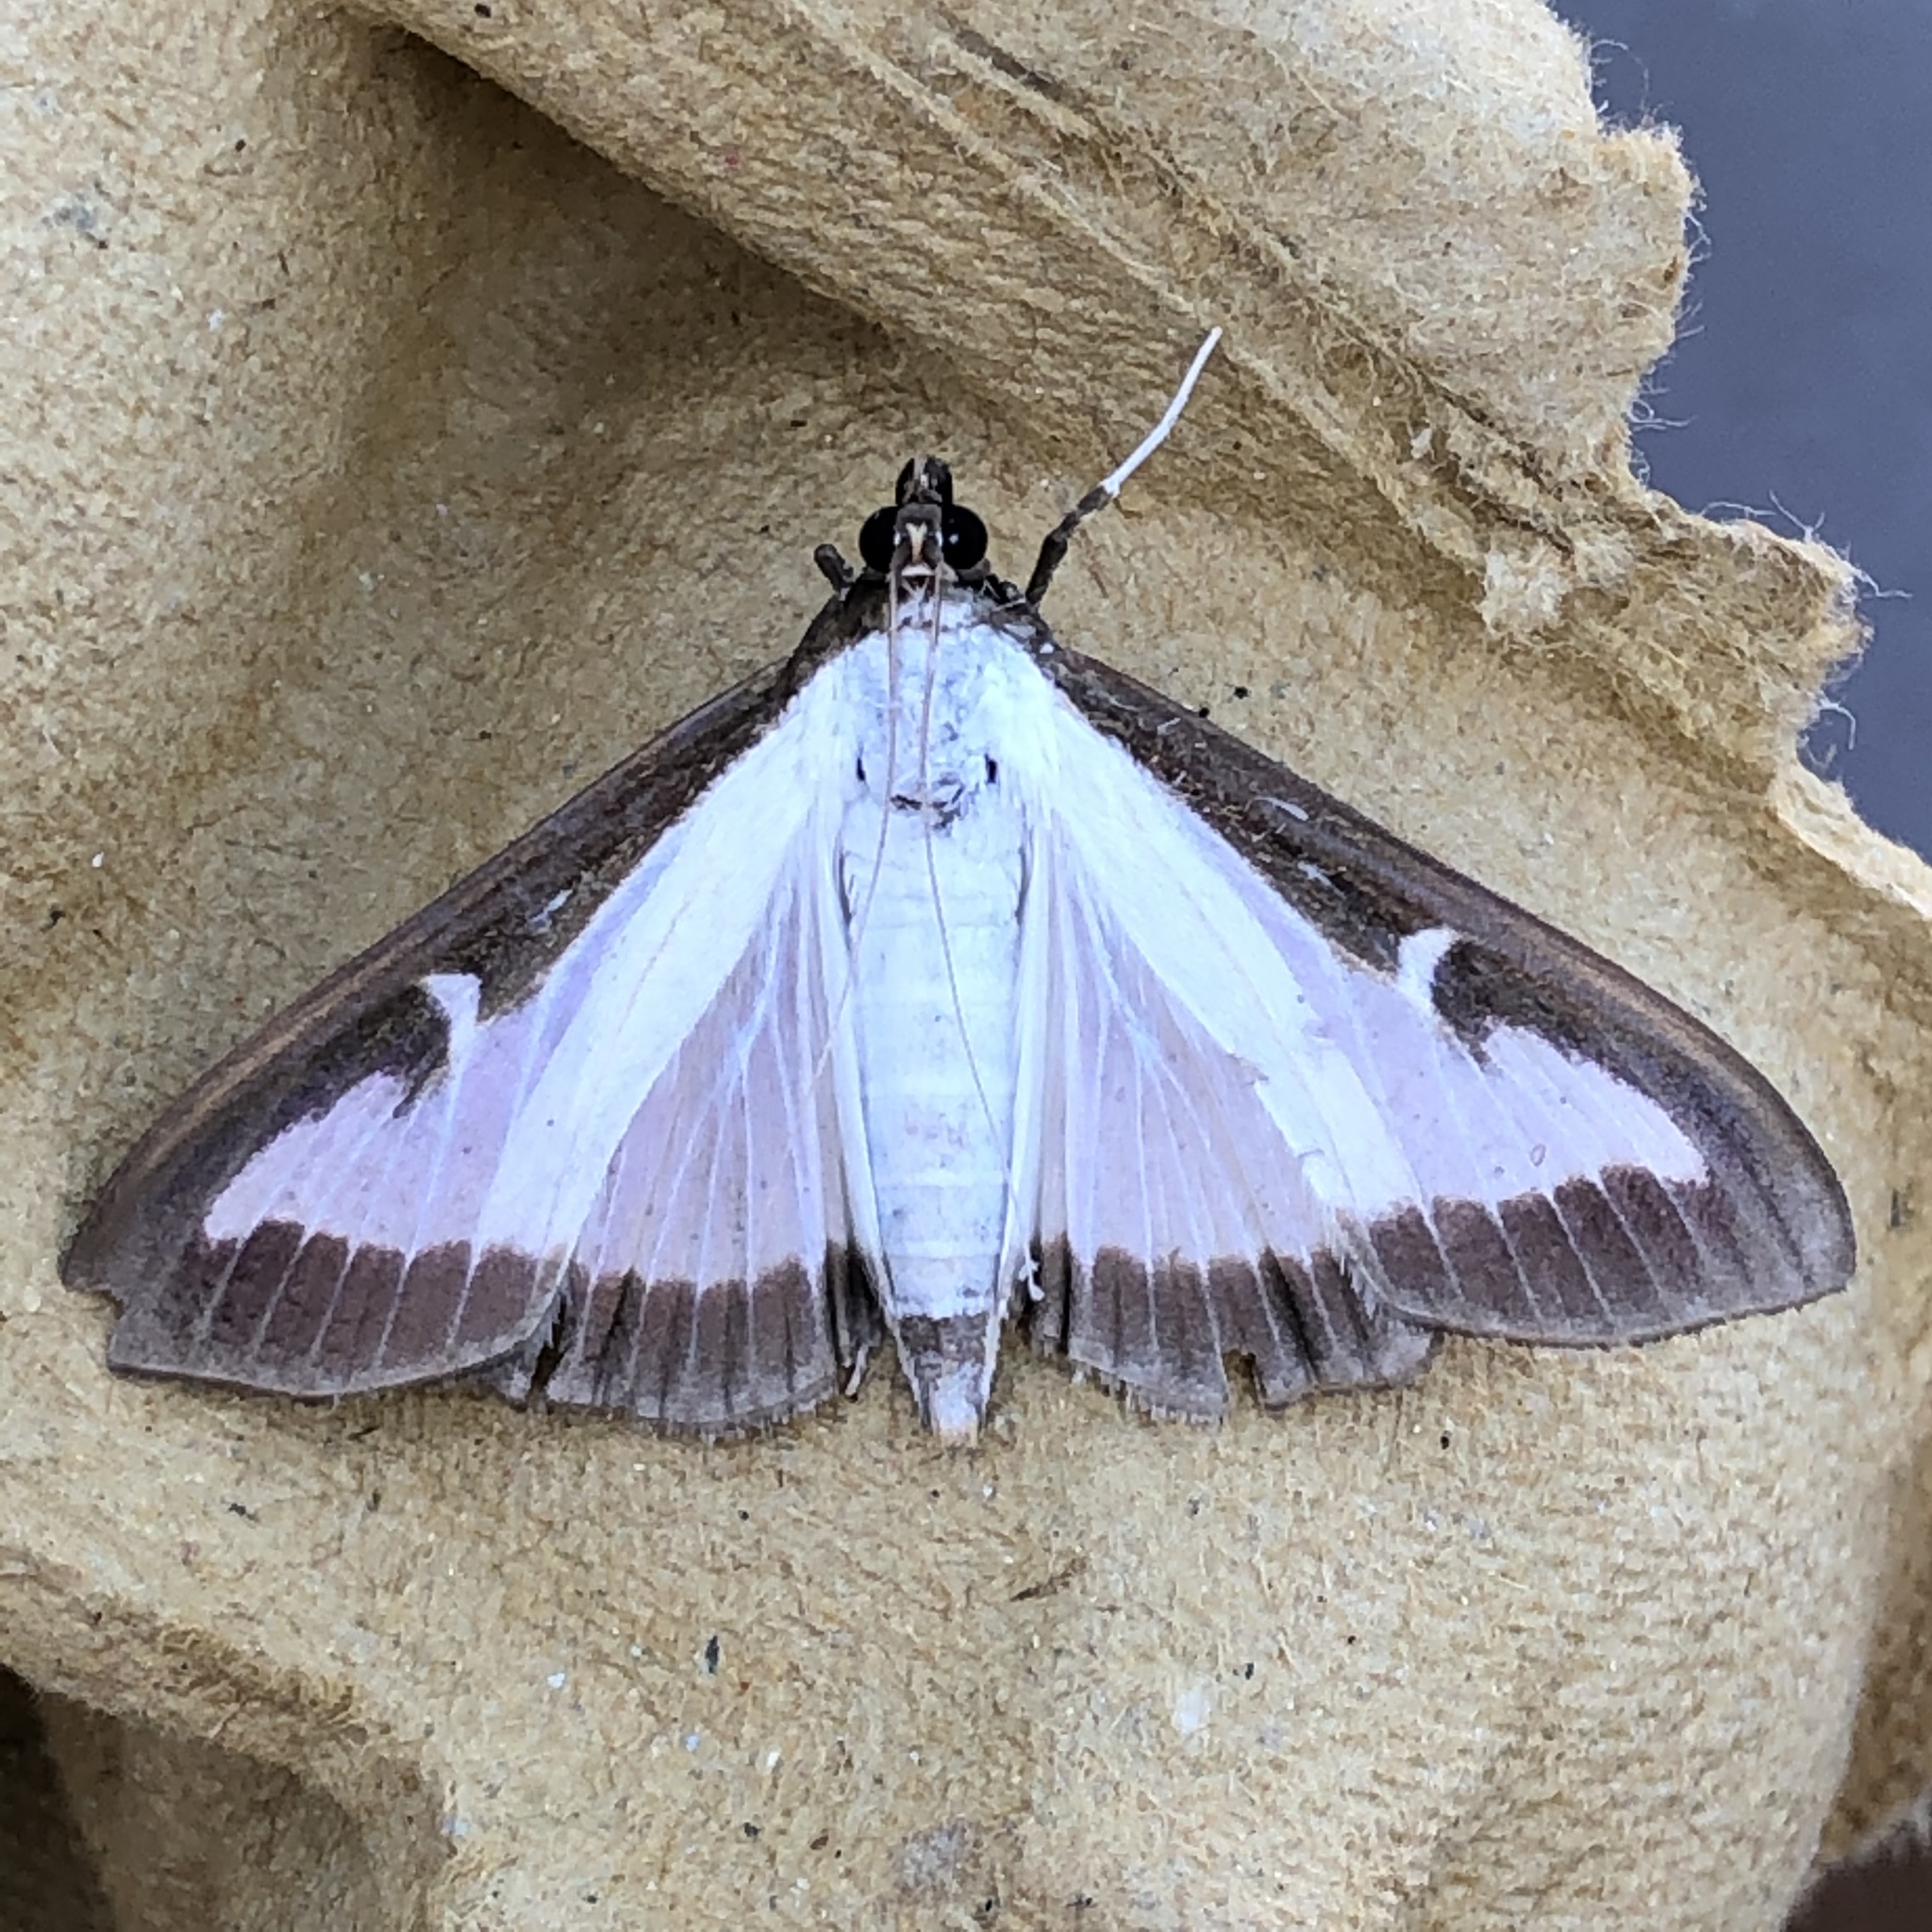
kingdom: Animalia
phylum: Arthropoda
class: Insecta
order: Lepidoptera
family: Crambidae
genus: Cydalima
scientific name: Cydalima perspectalis
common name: Box tree moth
